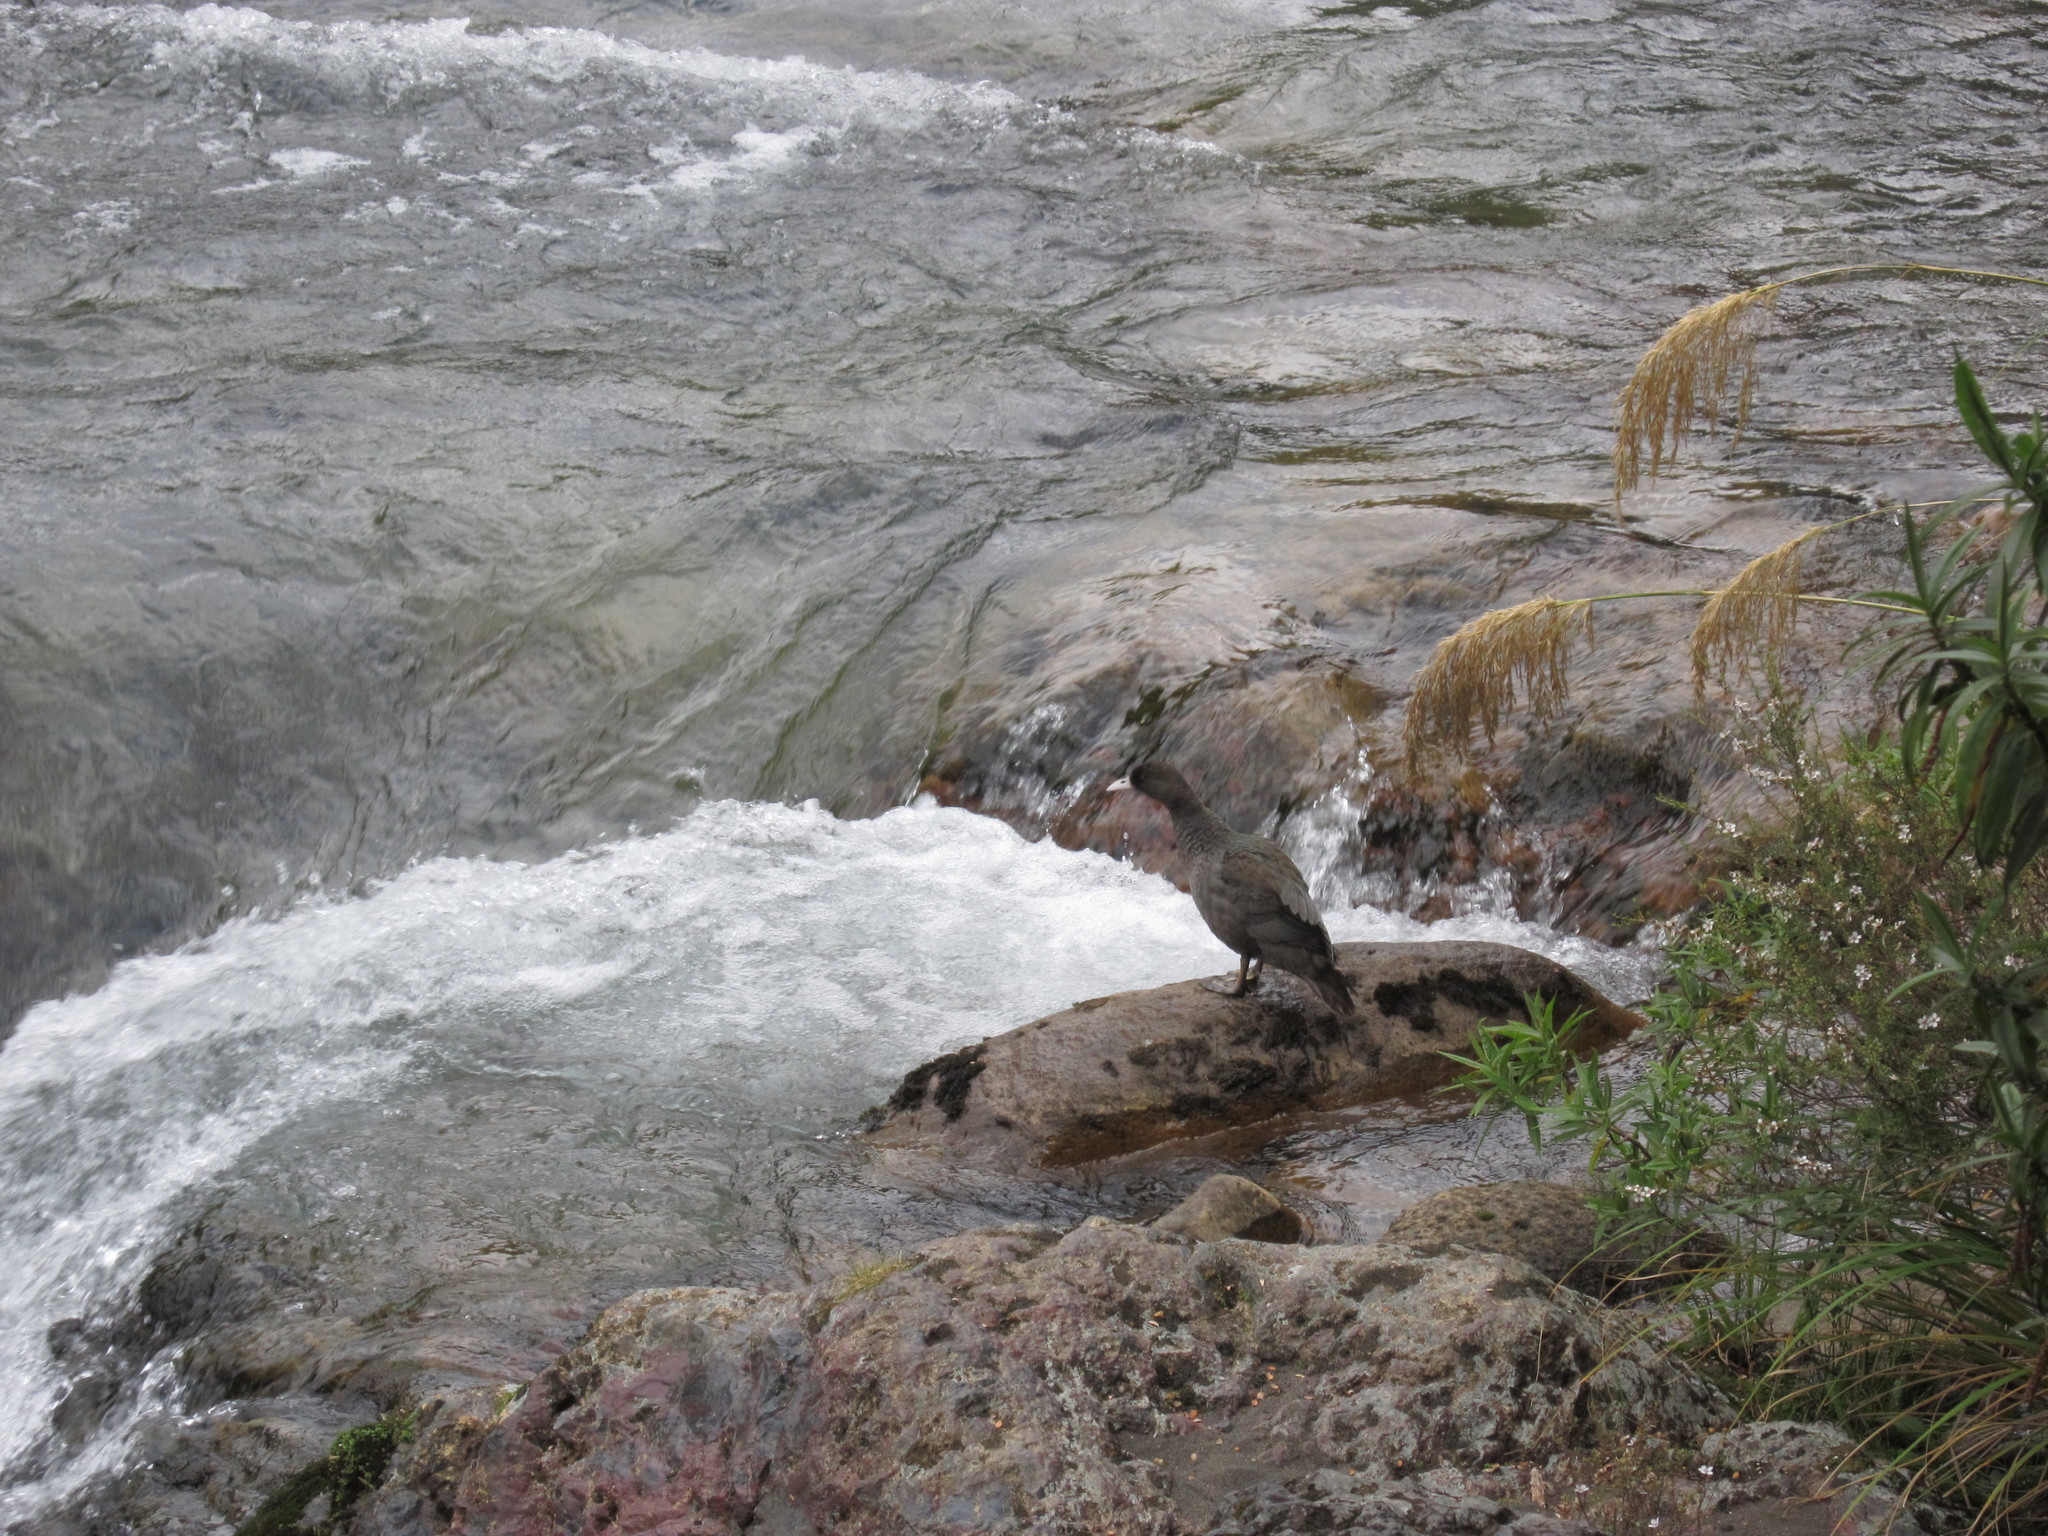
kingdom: Animalia
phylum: Chordata
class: Aves
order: Anseriformes
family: Anatidae
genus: Hymenolaimus
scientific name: Hymenolaimus malacorhynchos
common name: Blue duck
